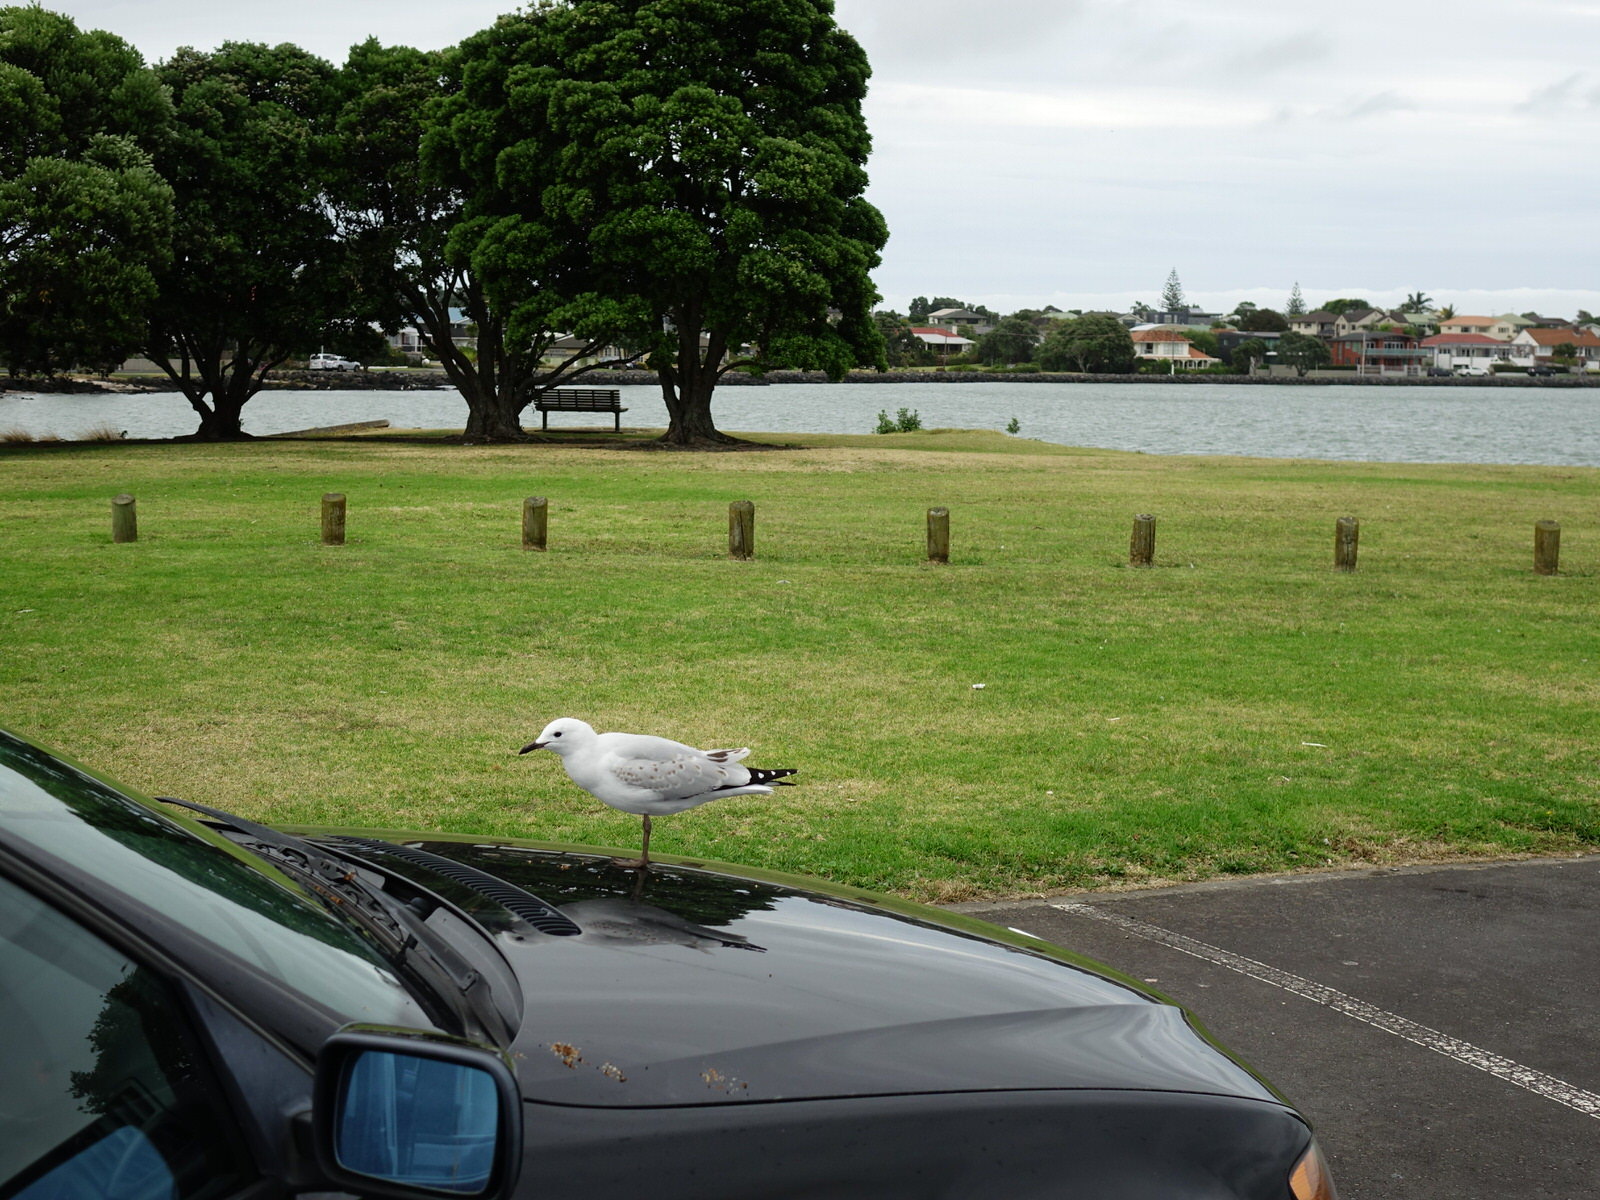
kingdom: Animalia
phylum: Chordata
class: Aves
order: Charadriiformes
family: Laridae
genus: Chroicocephalus
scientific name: Chroicocephalus novaehollandiae
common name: Silver gull
